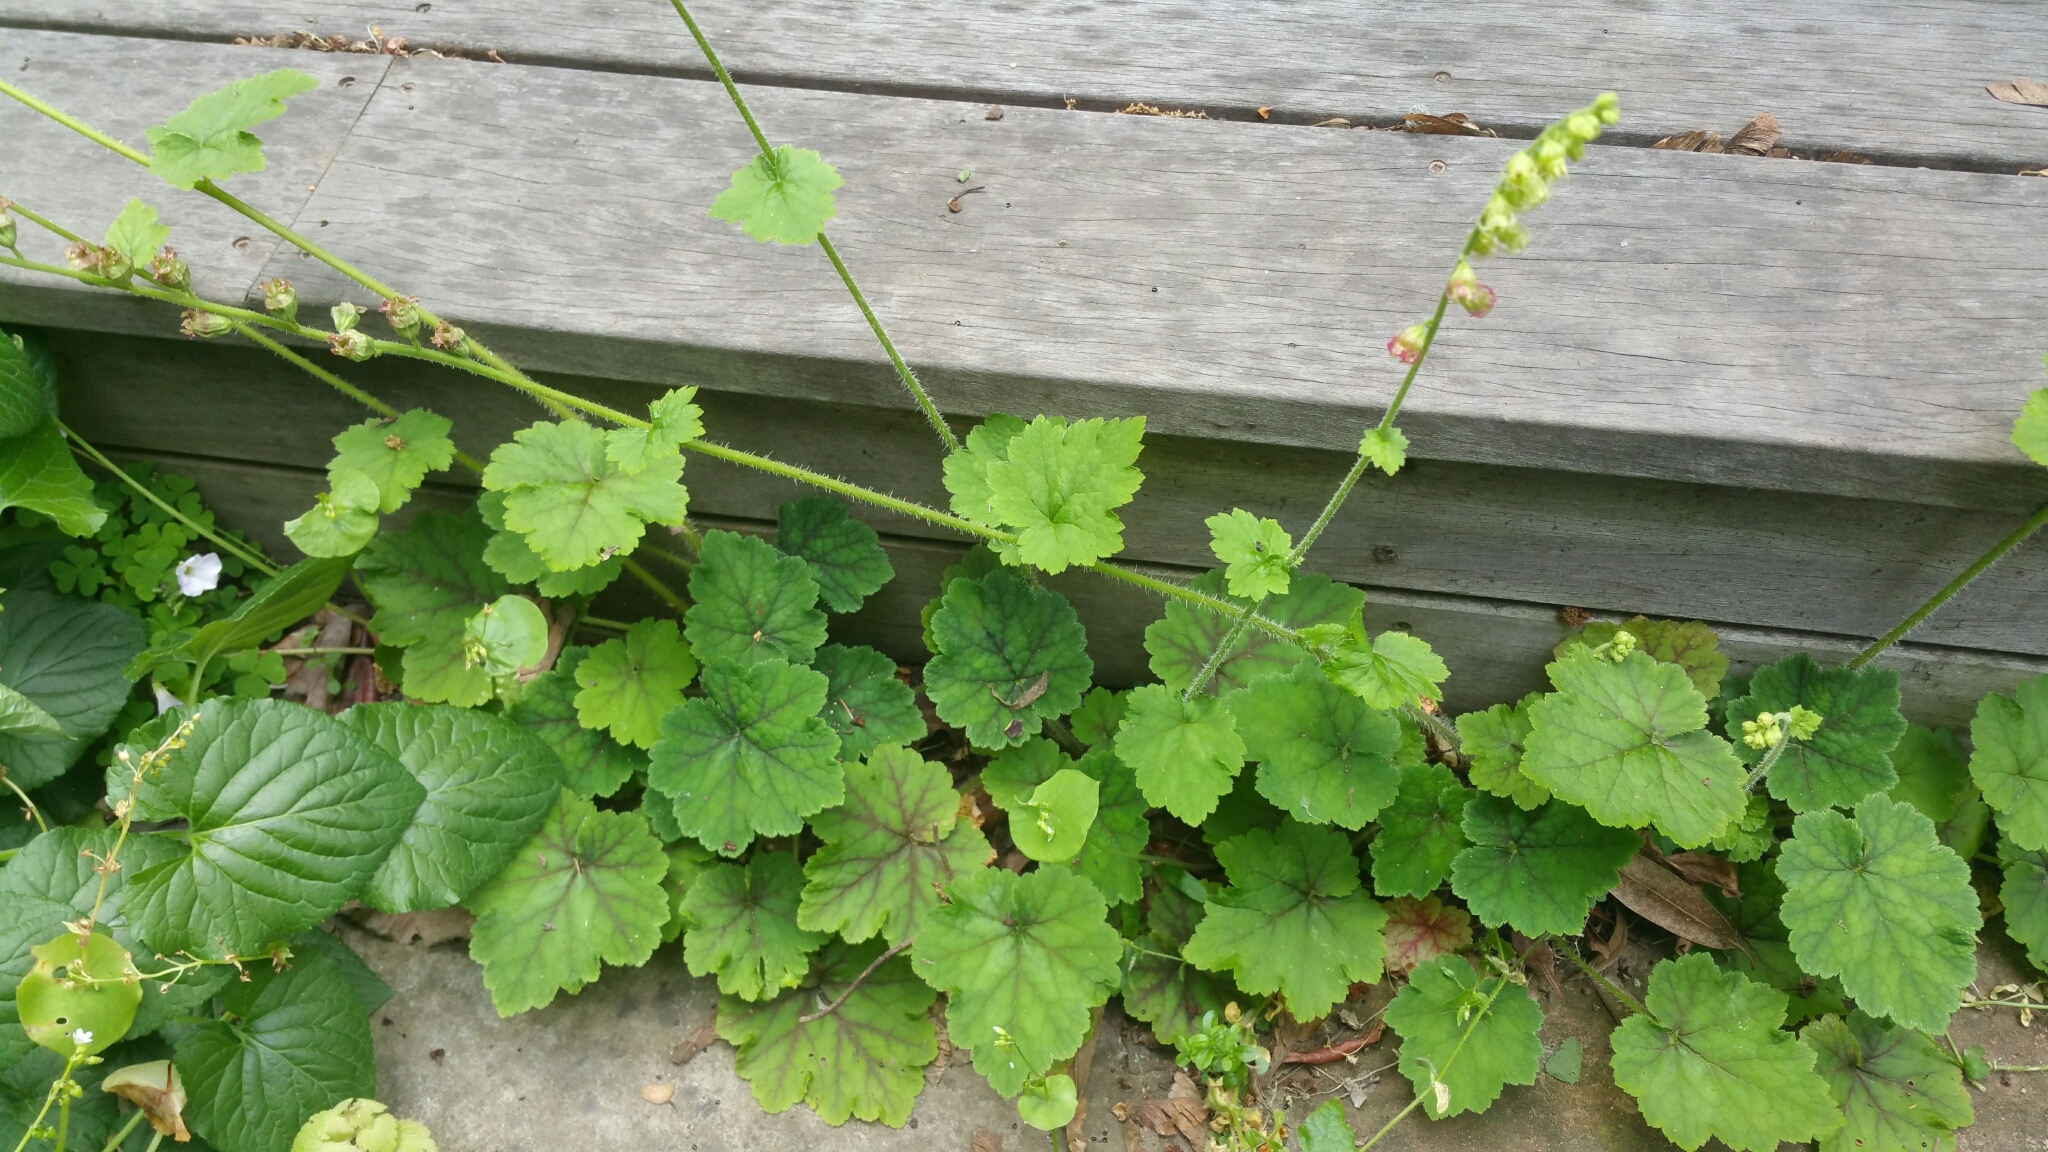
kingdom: Plantae
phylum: Tracheophyta
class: Magnoliopsida
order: Saxifragales
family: Saxifragaceae
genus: Tellima
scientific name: Tellima grandiflora
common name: Fringecups
